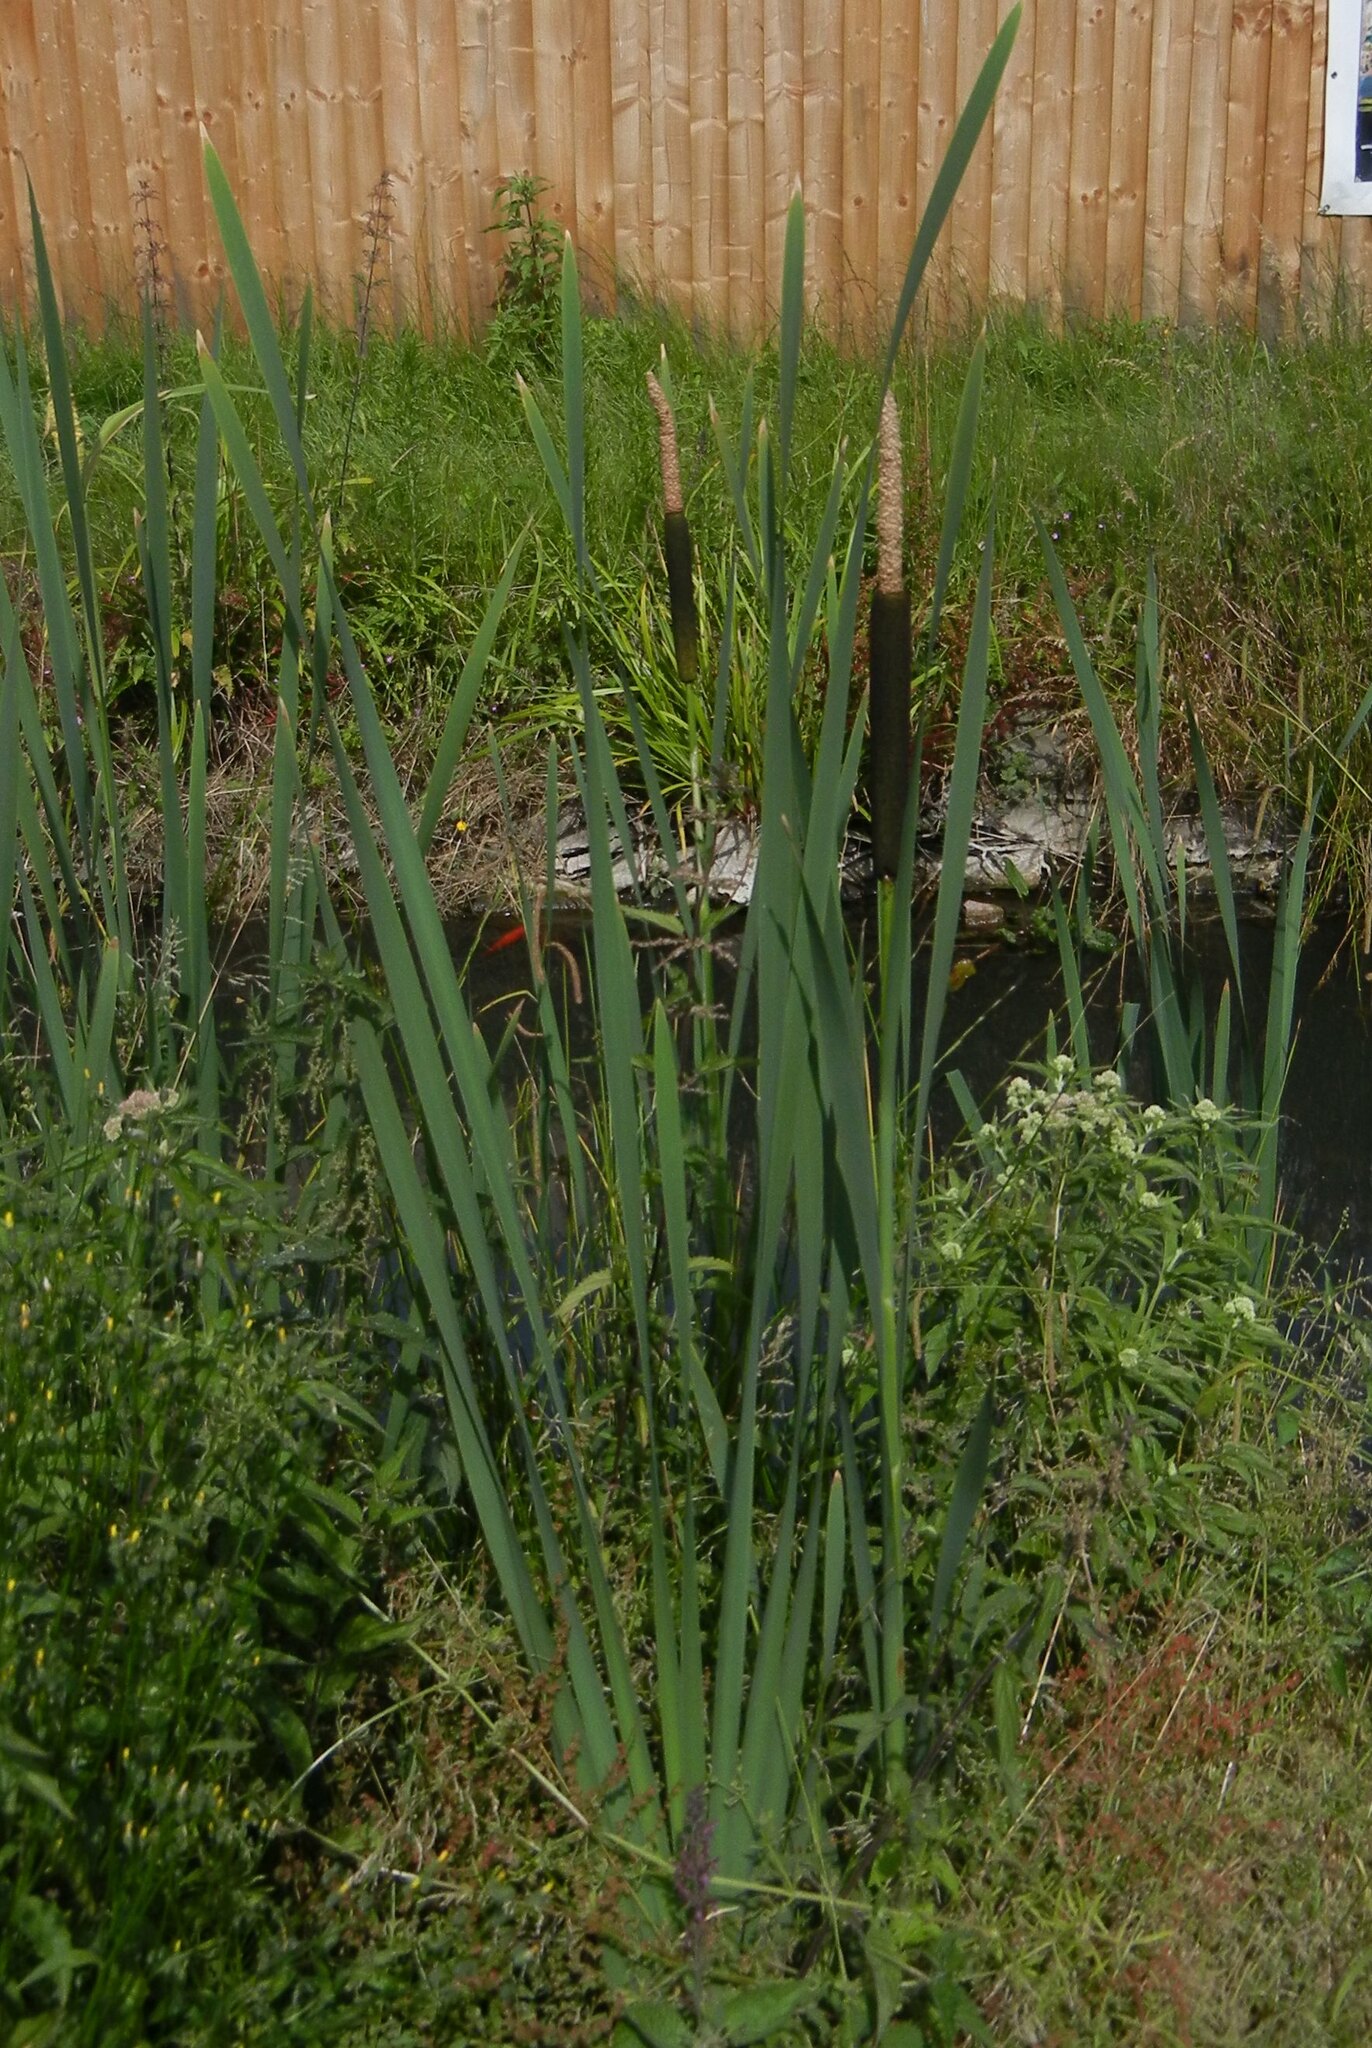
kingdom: Plantae
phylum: Tracheophyta
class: Liliopsida
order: Poales
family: Typhaceae
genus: Typha
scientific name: Typha latifolia
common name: Broadleaf cattail
